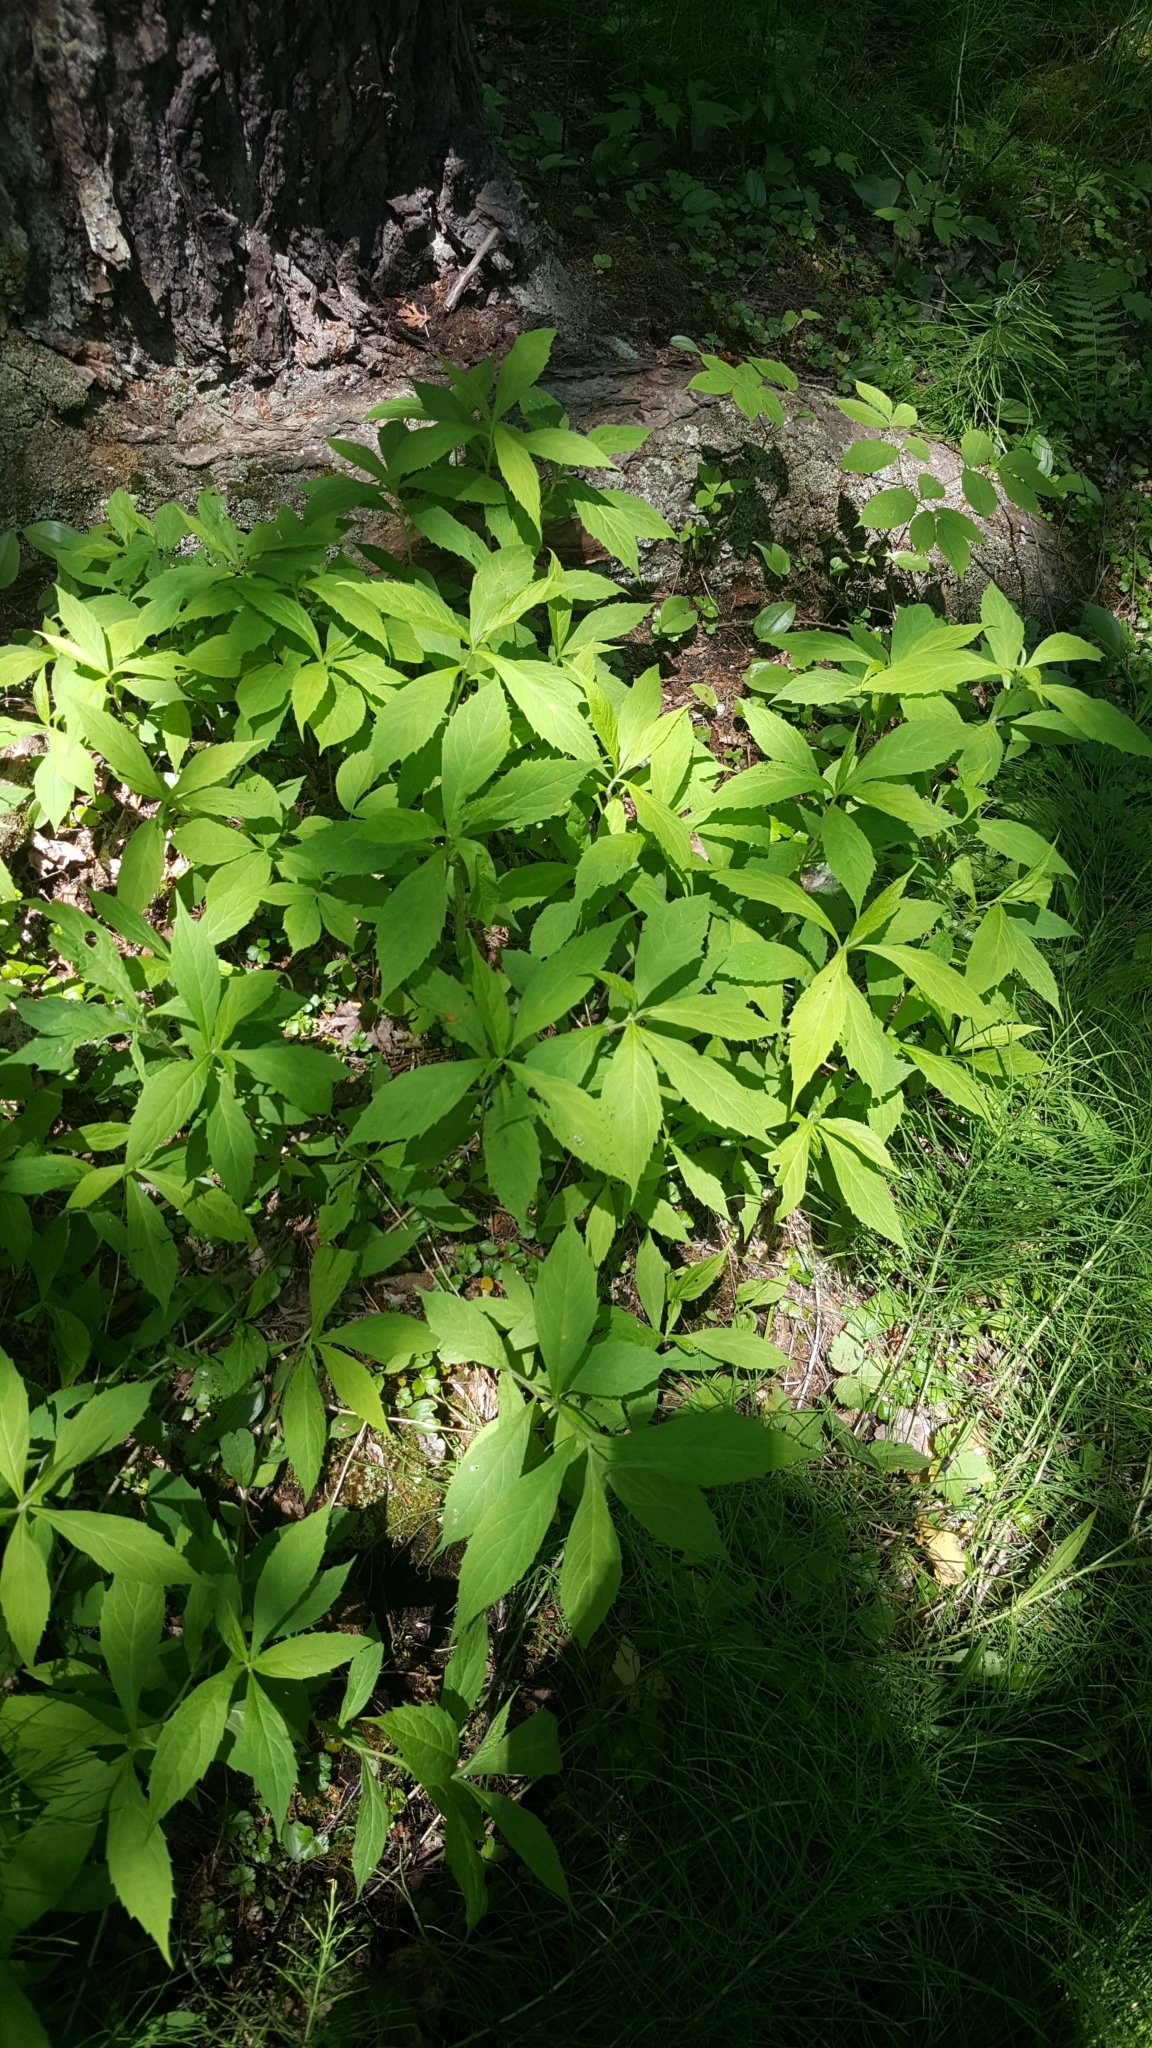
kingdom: Plantae
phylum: Tracheophyta
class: Magnoliopsida
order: Asterales
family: Asteraceae
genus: Oclemena
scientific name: Oclemena acuminata
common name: Mountain aster
